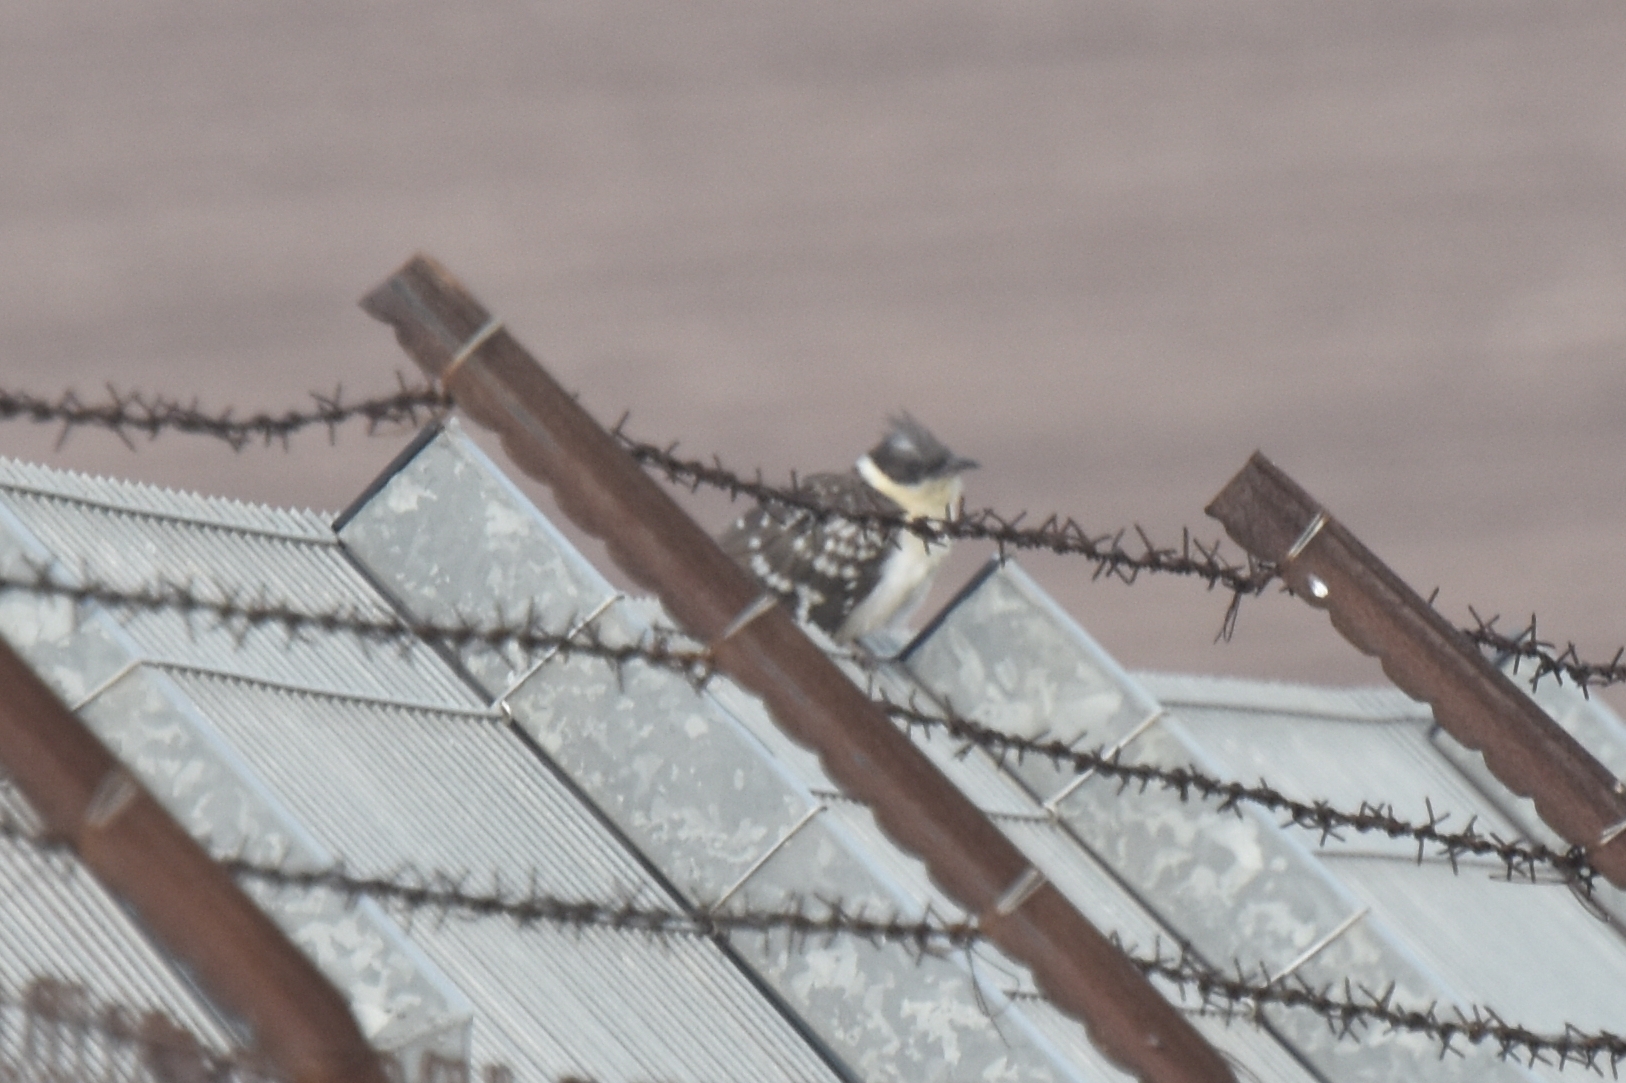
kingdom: Animalia
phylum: Chordata
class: Aves
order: Cuculiformes
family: Cuculidae
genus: Clamator
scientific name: Clamator glandarius
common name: Great spotted cuckoo
